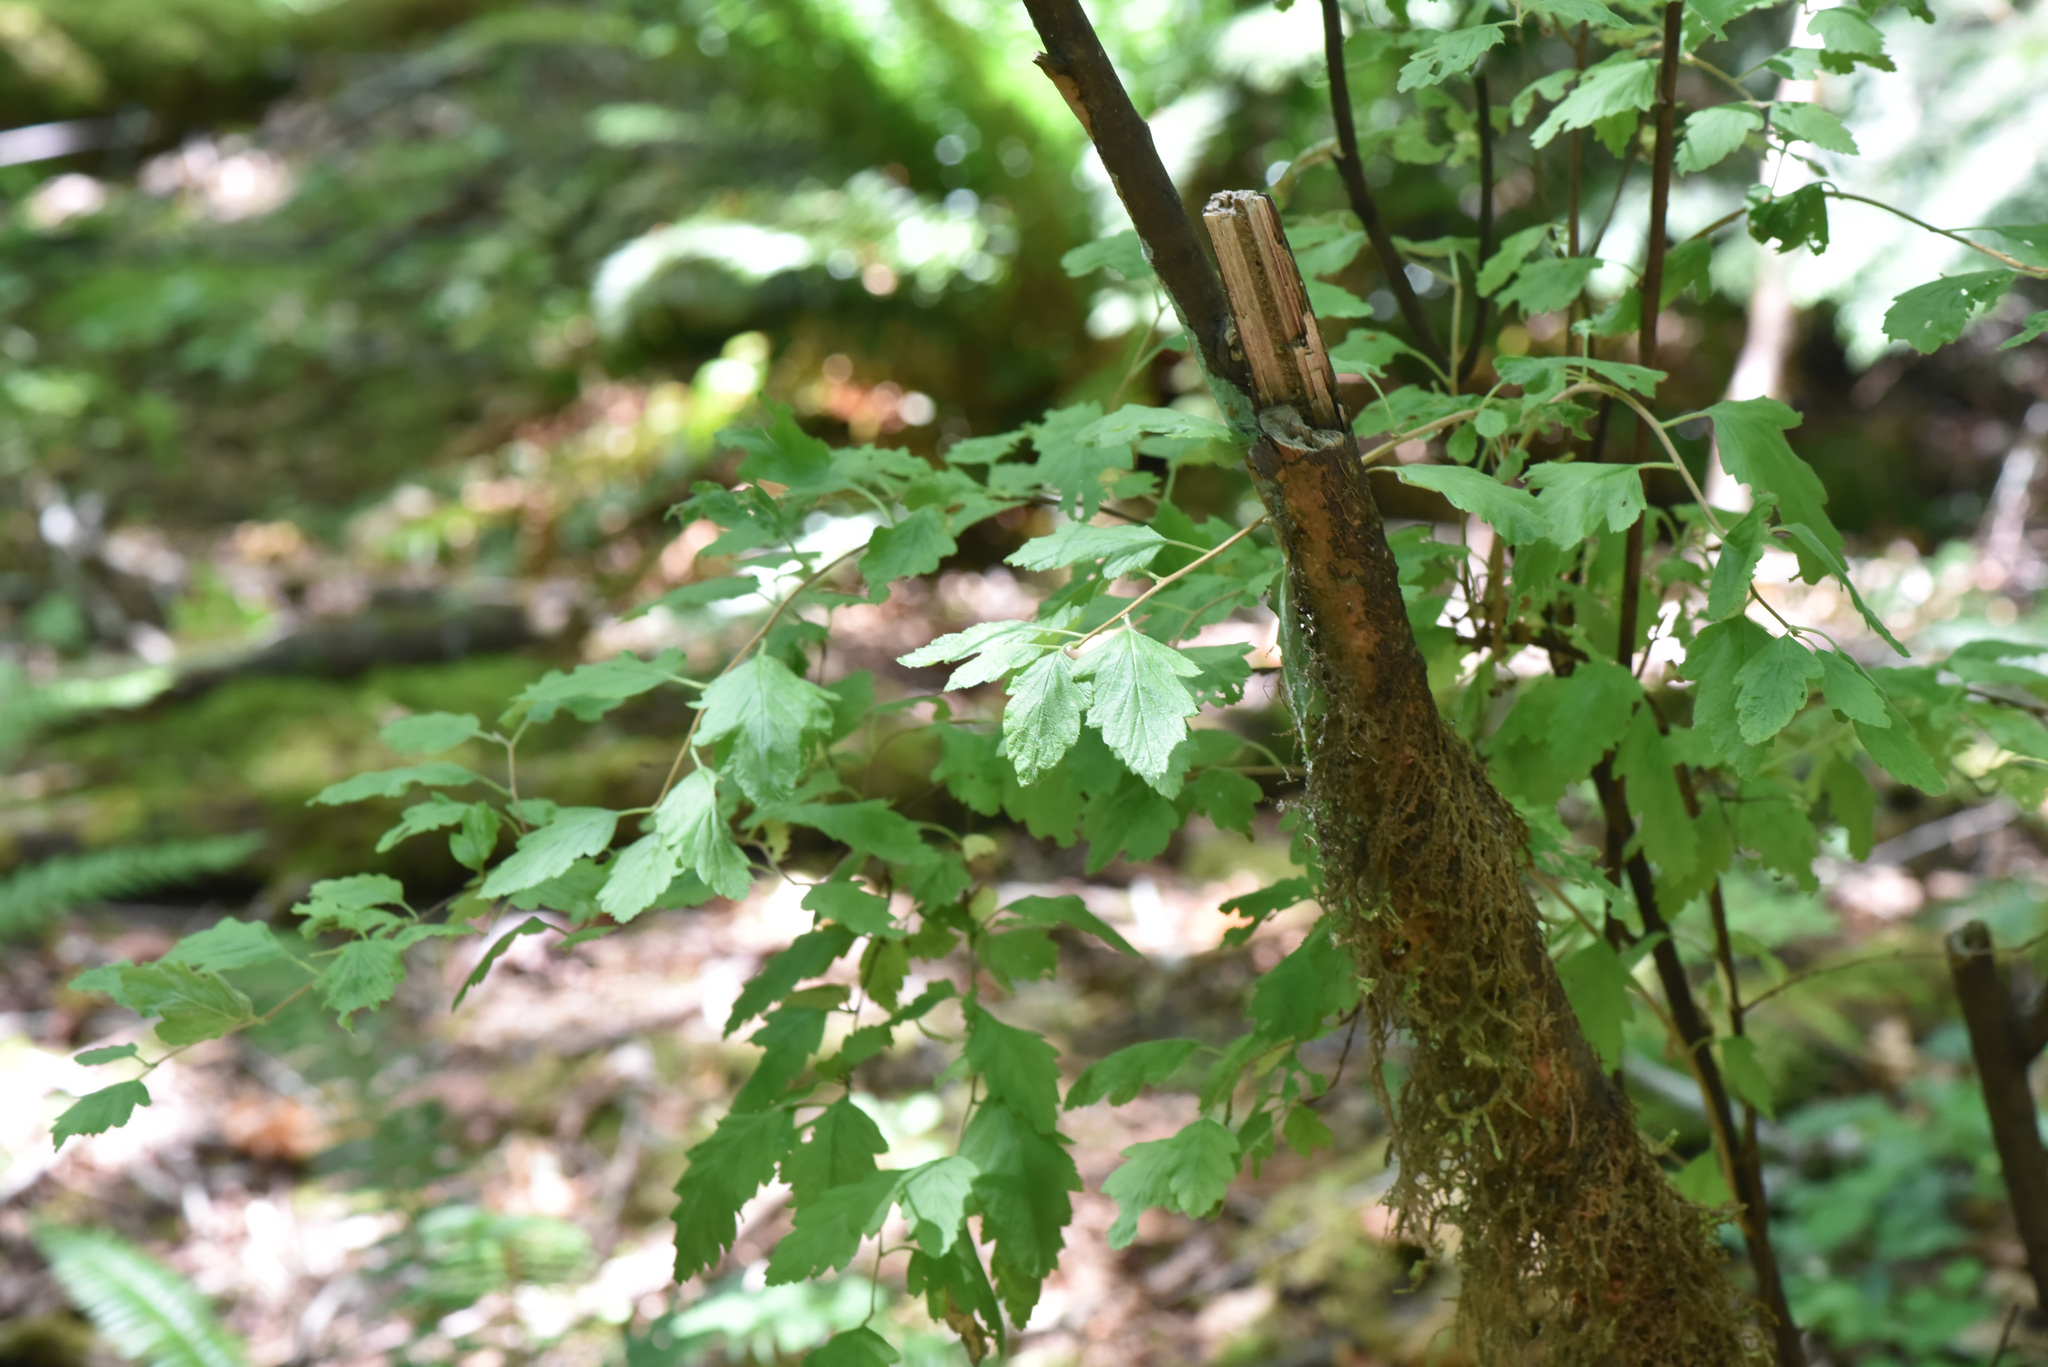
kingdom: Plantae
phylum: Tracheophyta
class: Magnoliopsida
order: Rosales
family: Rosaceae
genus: Holodiscus
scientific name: Holodiscus discolor
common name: Oceanspray
